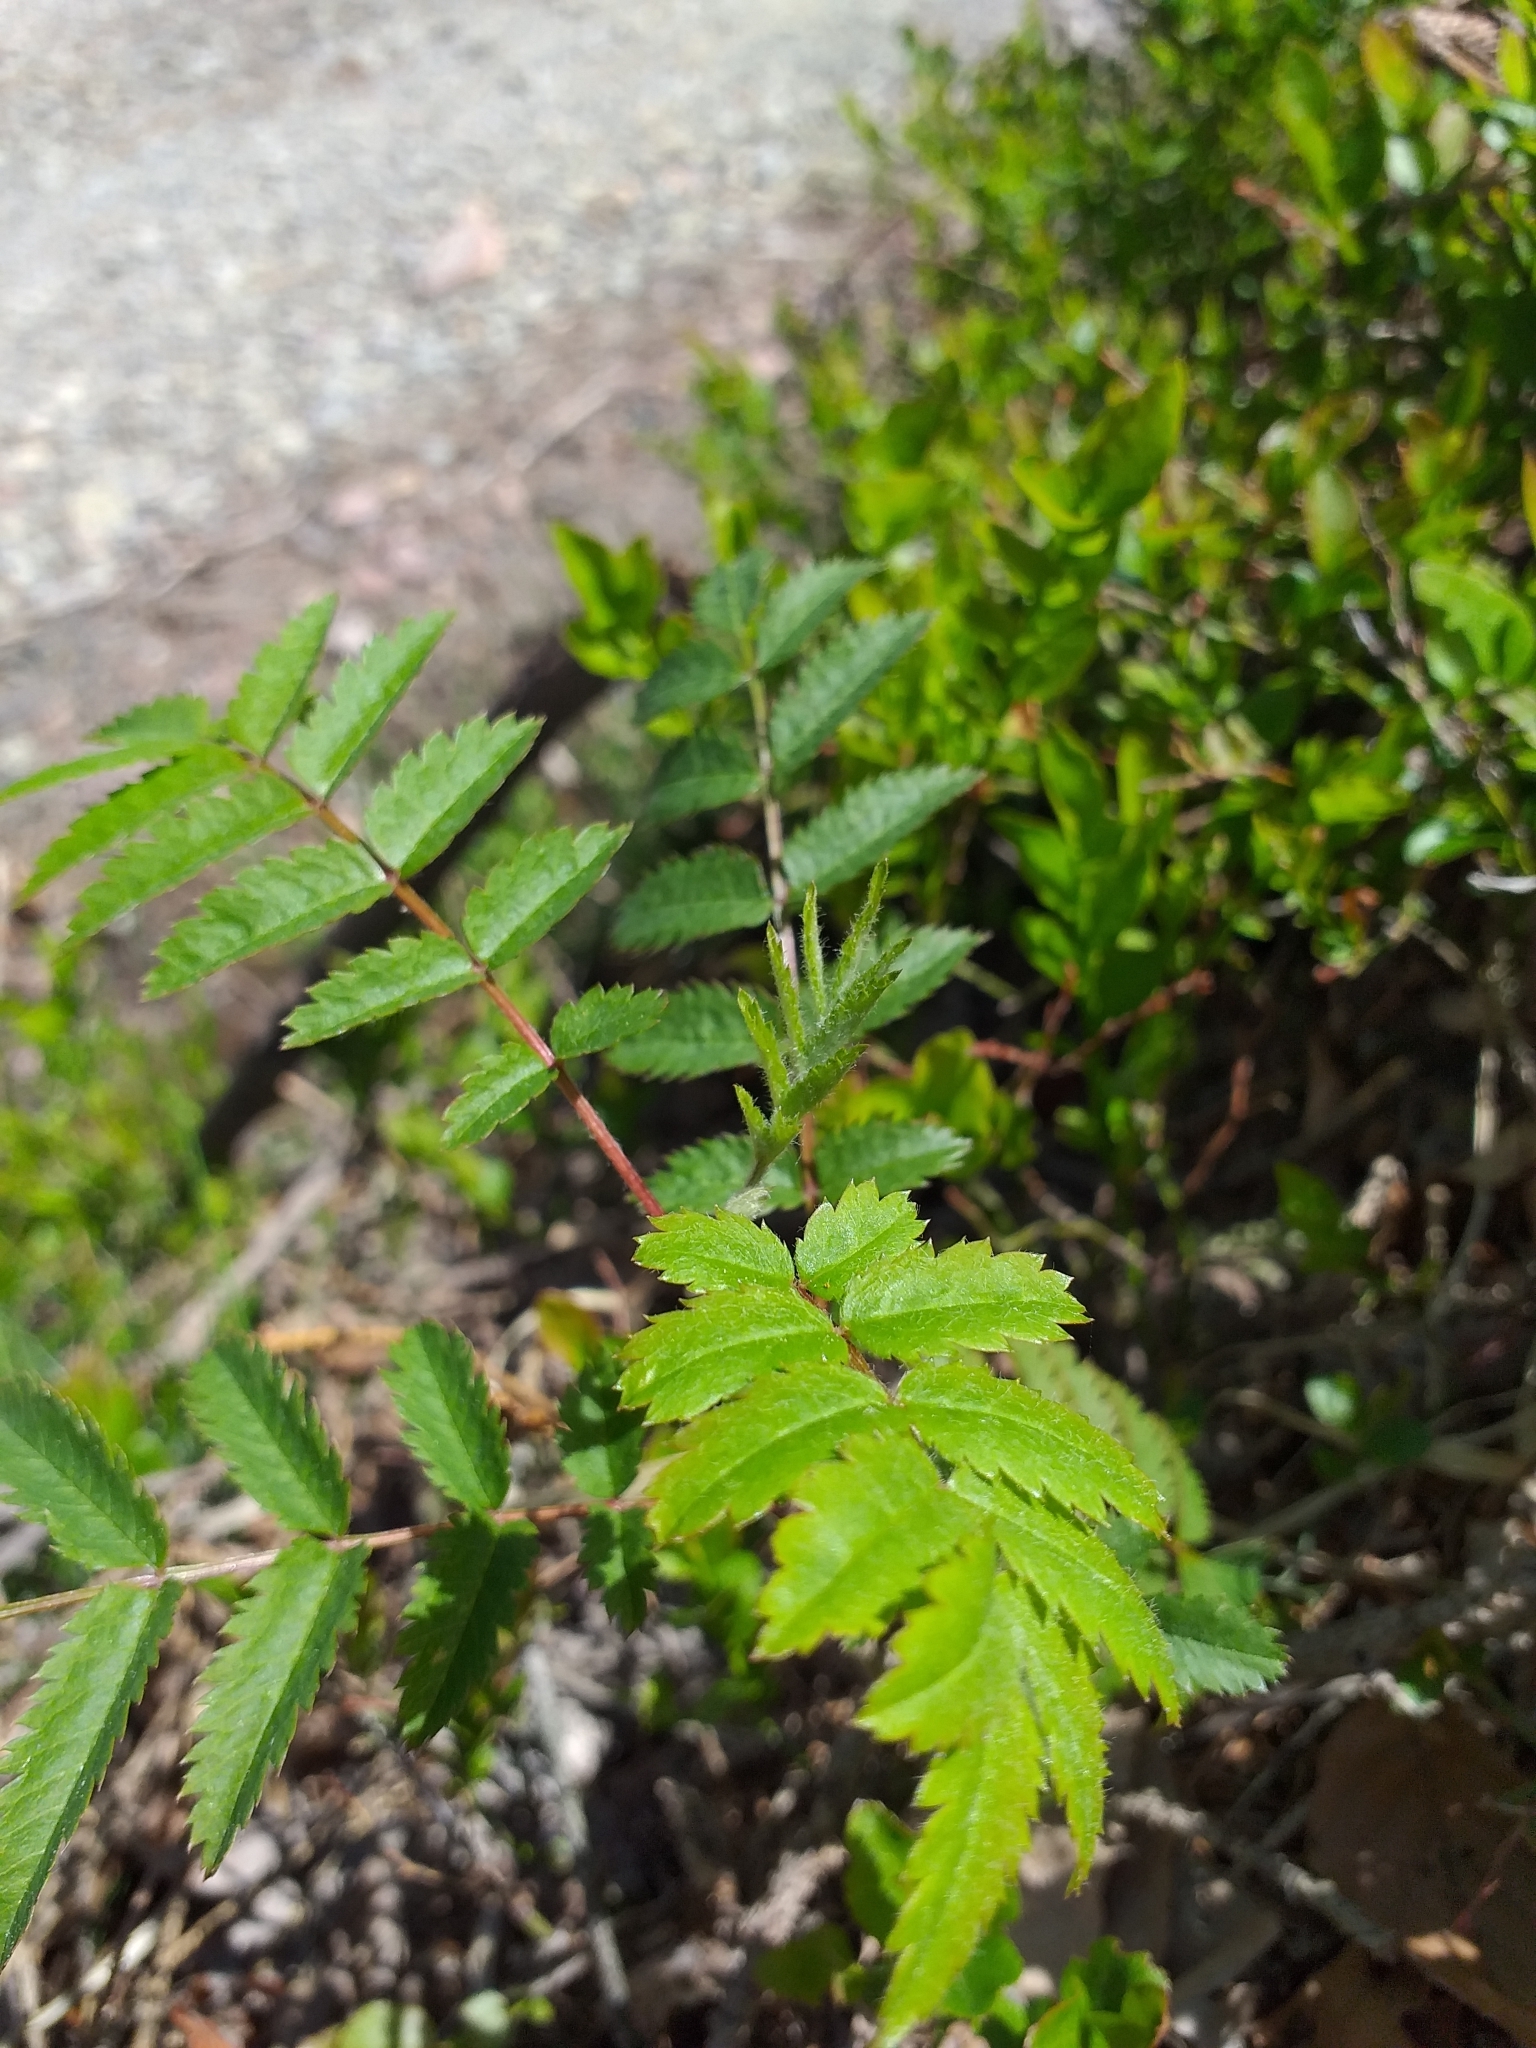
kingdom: Plantae
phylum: Tracheophyta
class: Magnoliopsida
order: Rosales
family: Rosaceae
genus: Sorbus
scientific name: Sorbus aucuparia
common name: Rowan
